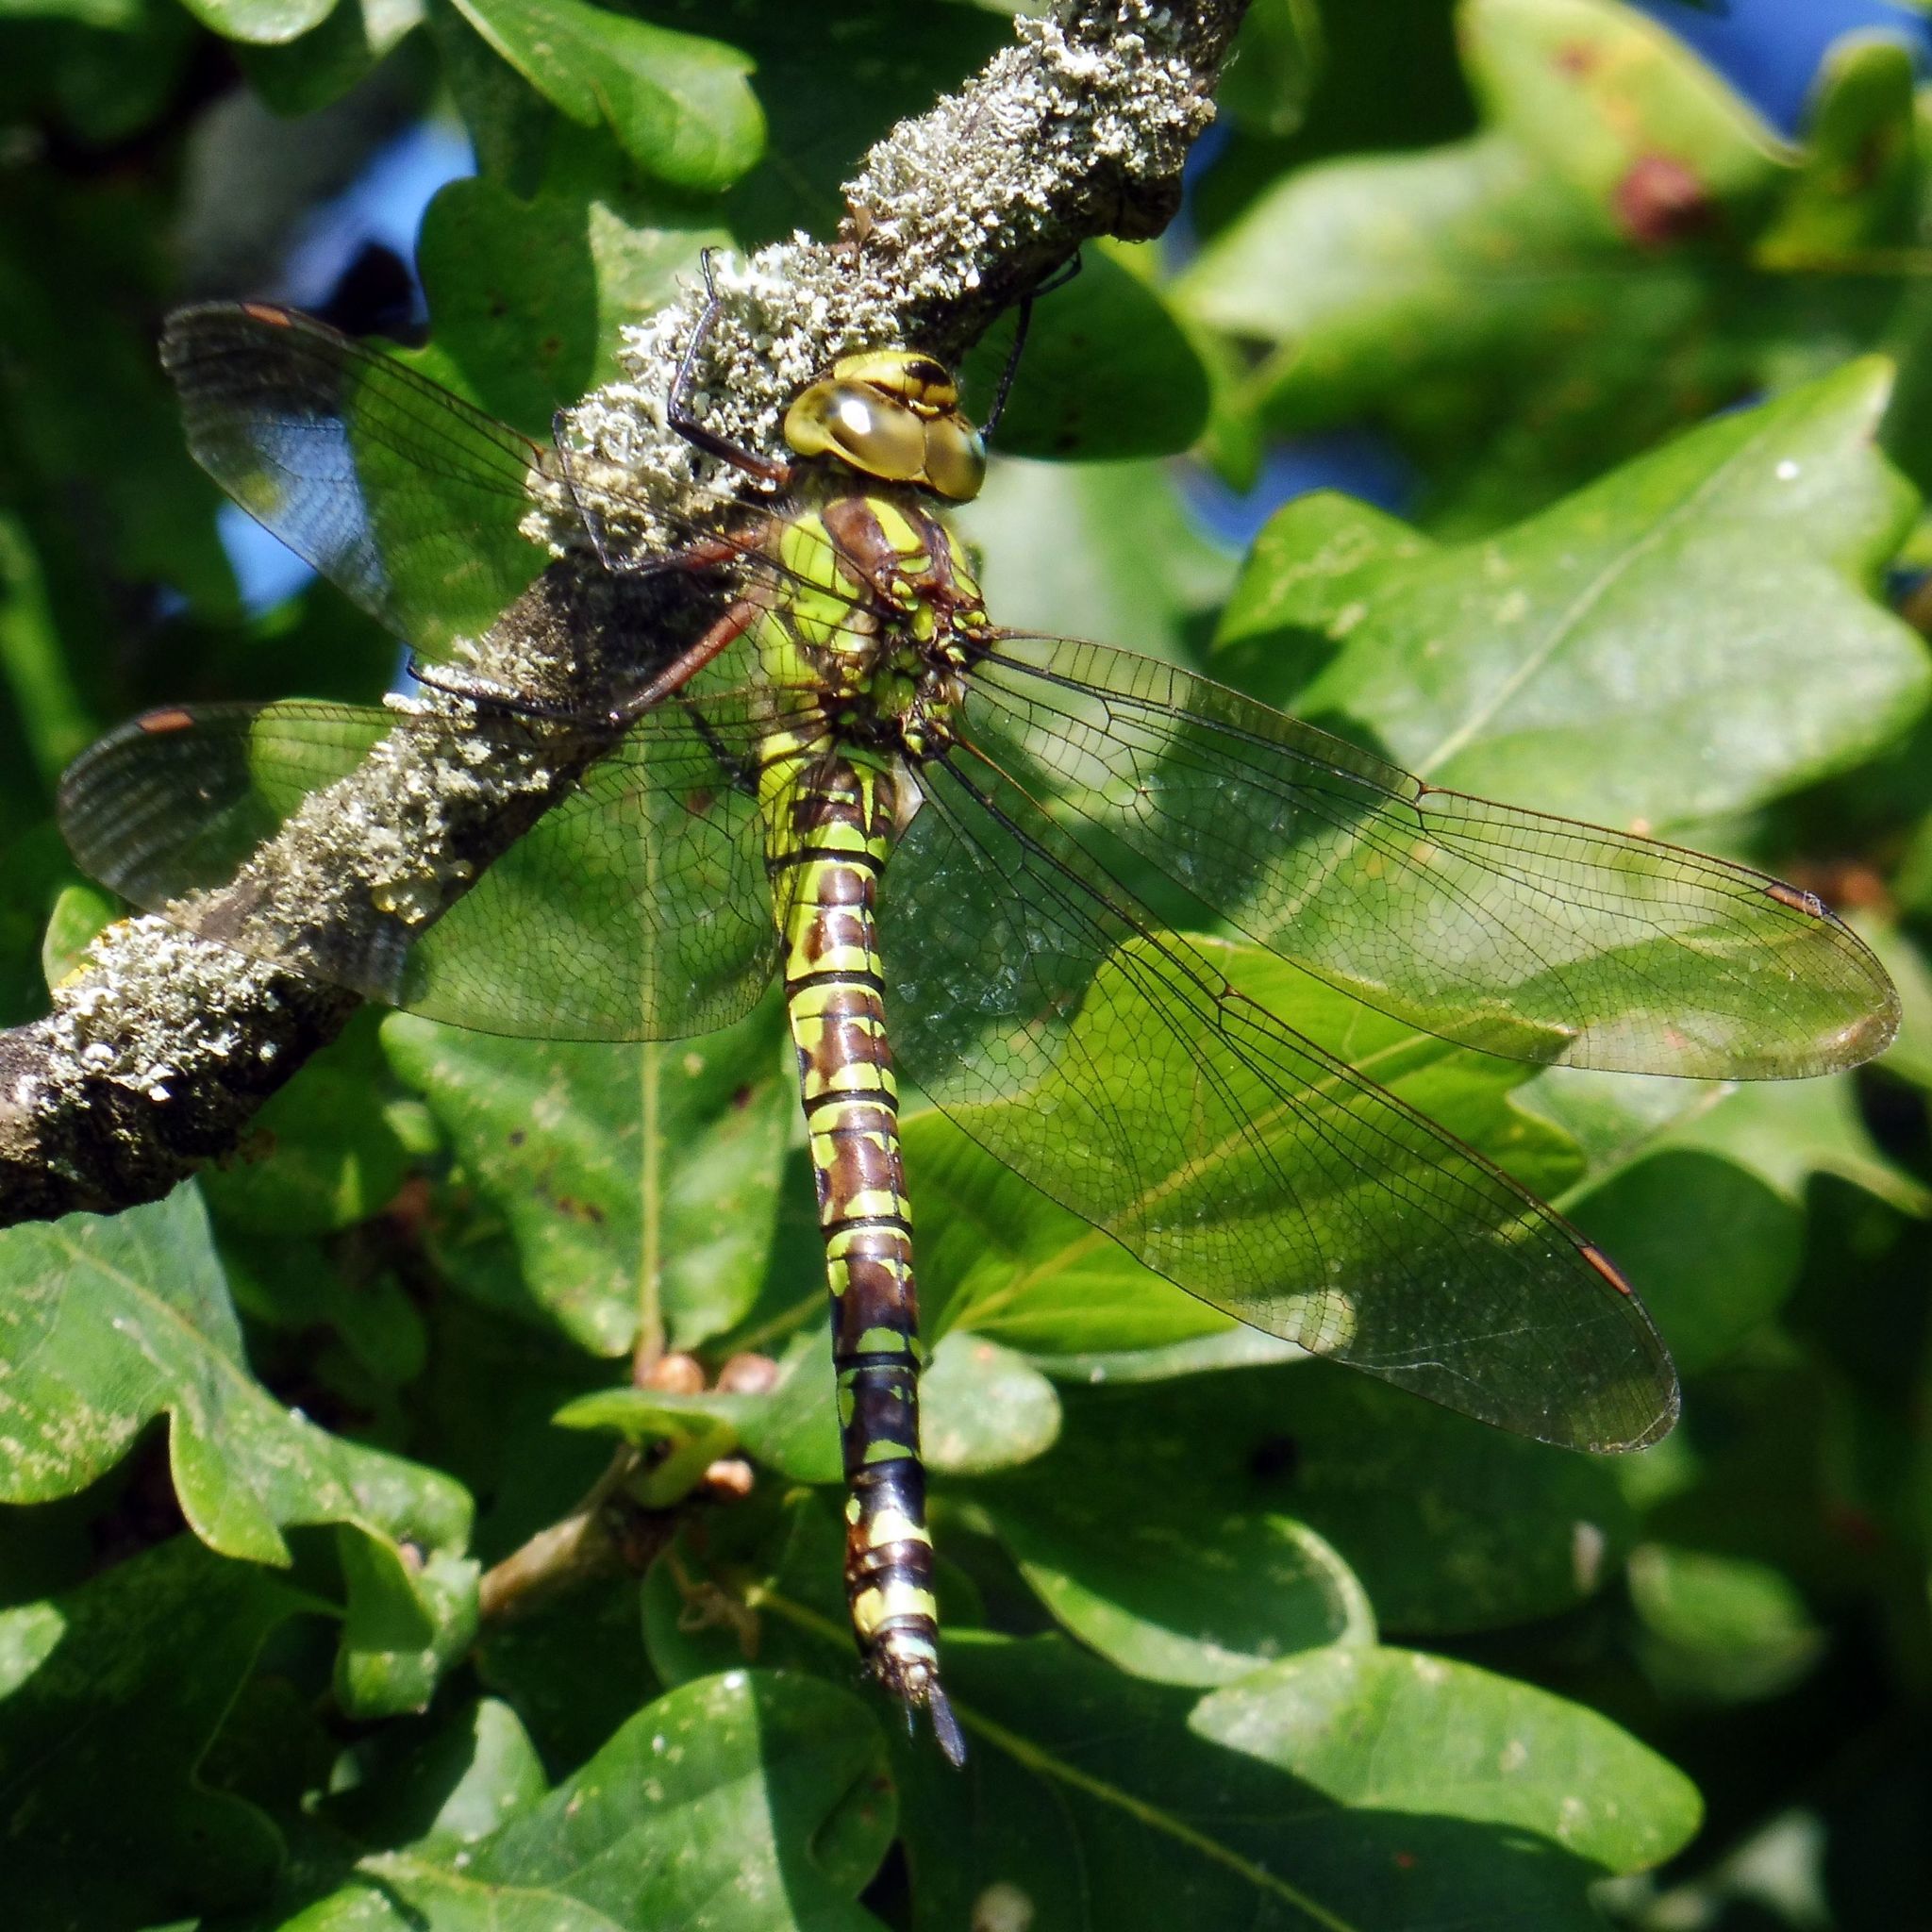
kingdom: Animalia
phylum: Arthropoda
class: Insecta
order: Odonata
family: Aeshnidae
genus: Aeshna
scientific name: Aeshna cyanea
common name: Southern hawker
